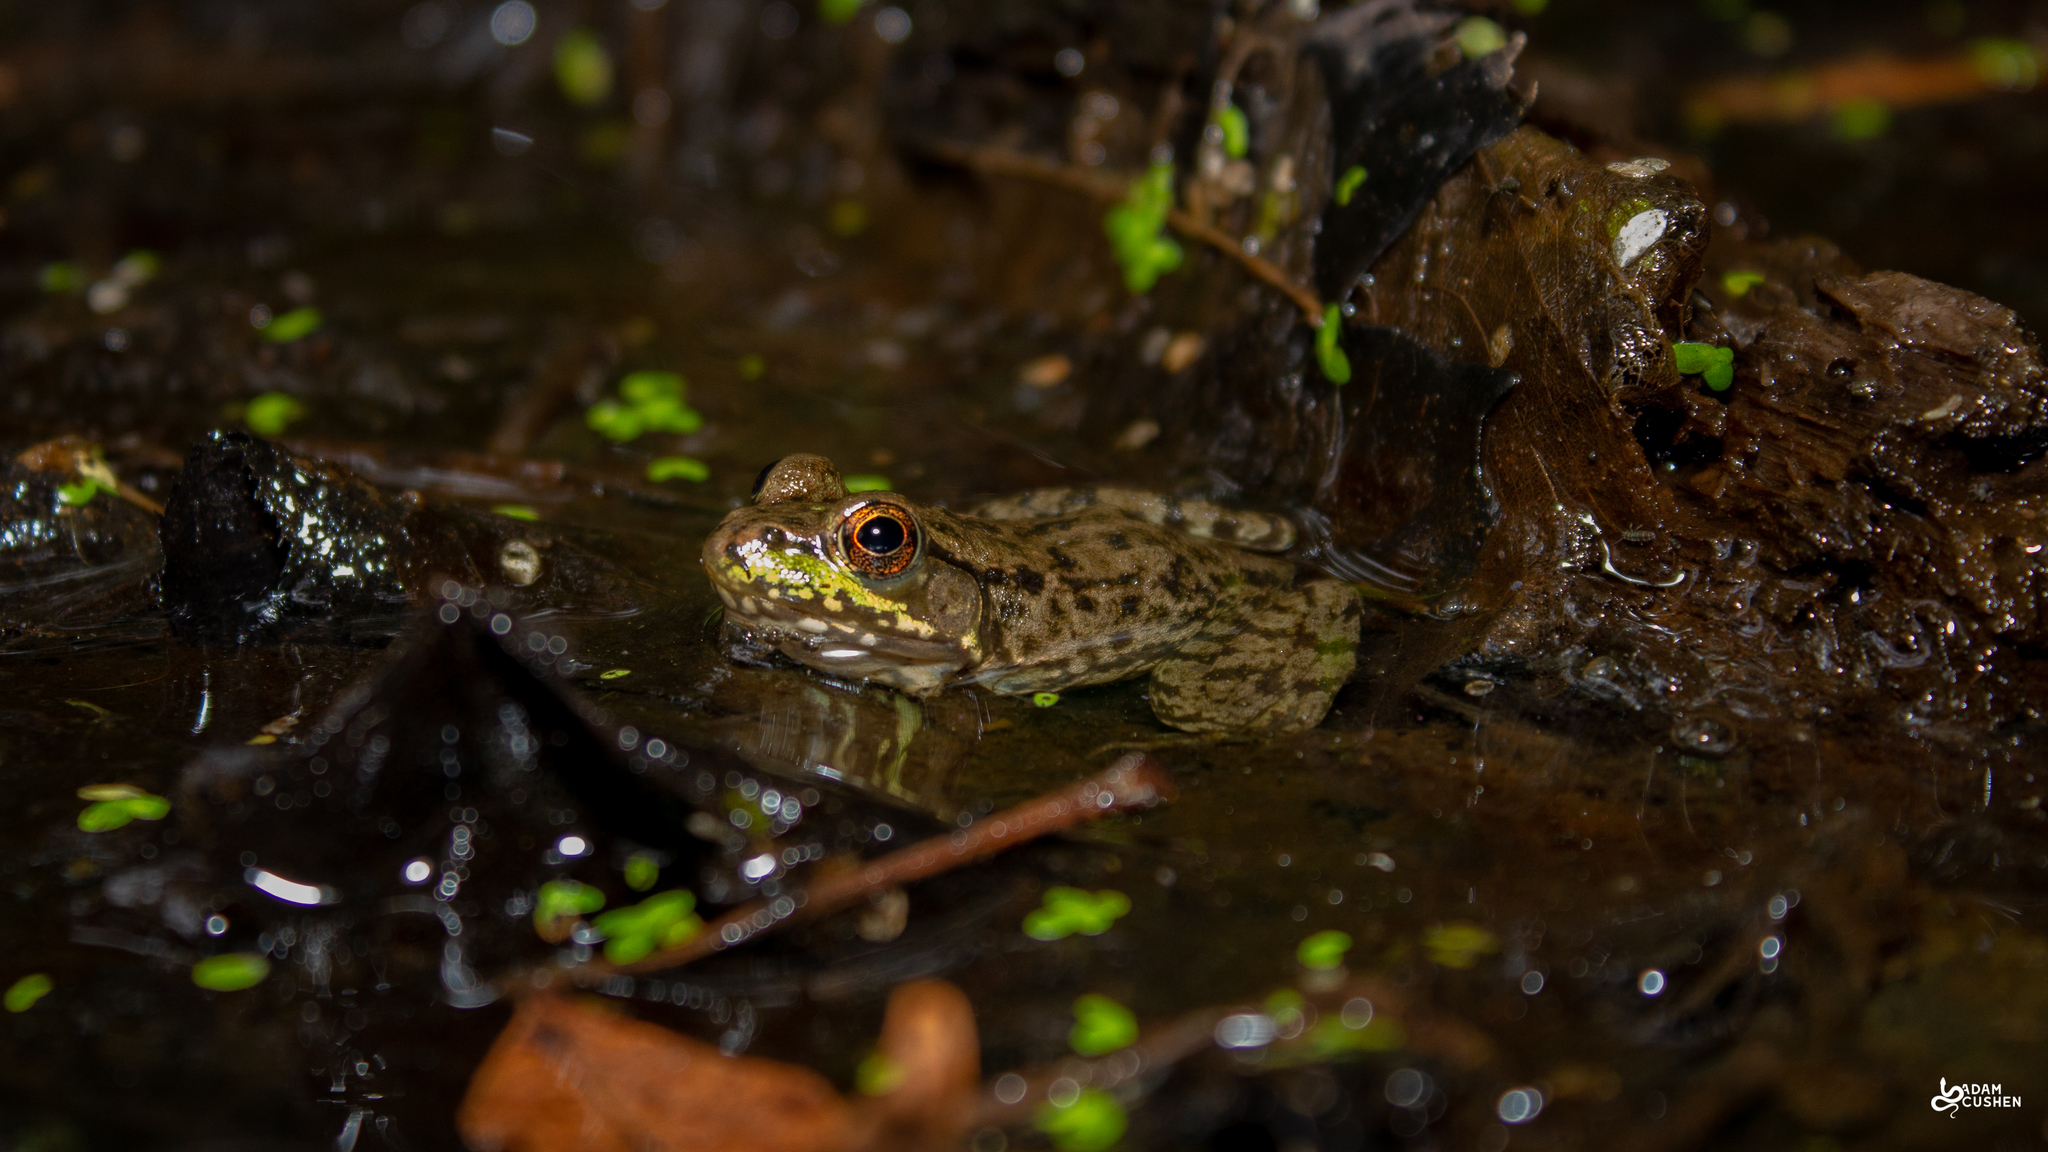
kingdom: Animalia
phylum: Chordata
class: Amphibia
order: Anura
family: Ranidae
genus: Lithobates
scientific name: Lithobates clamitans
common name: Green frog
